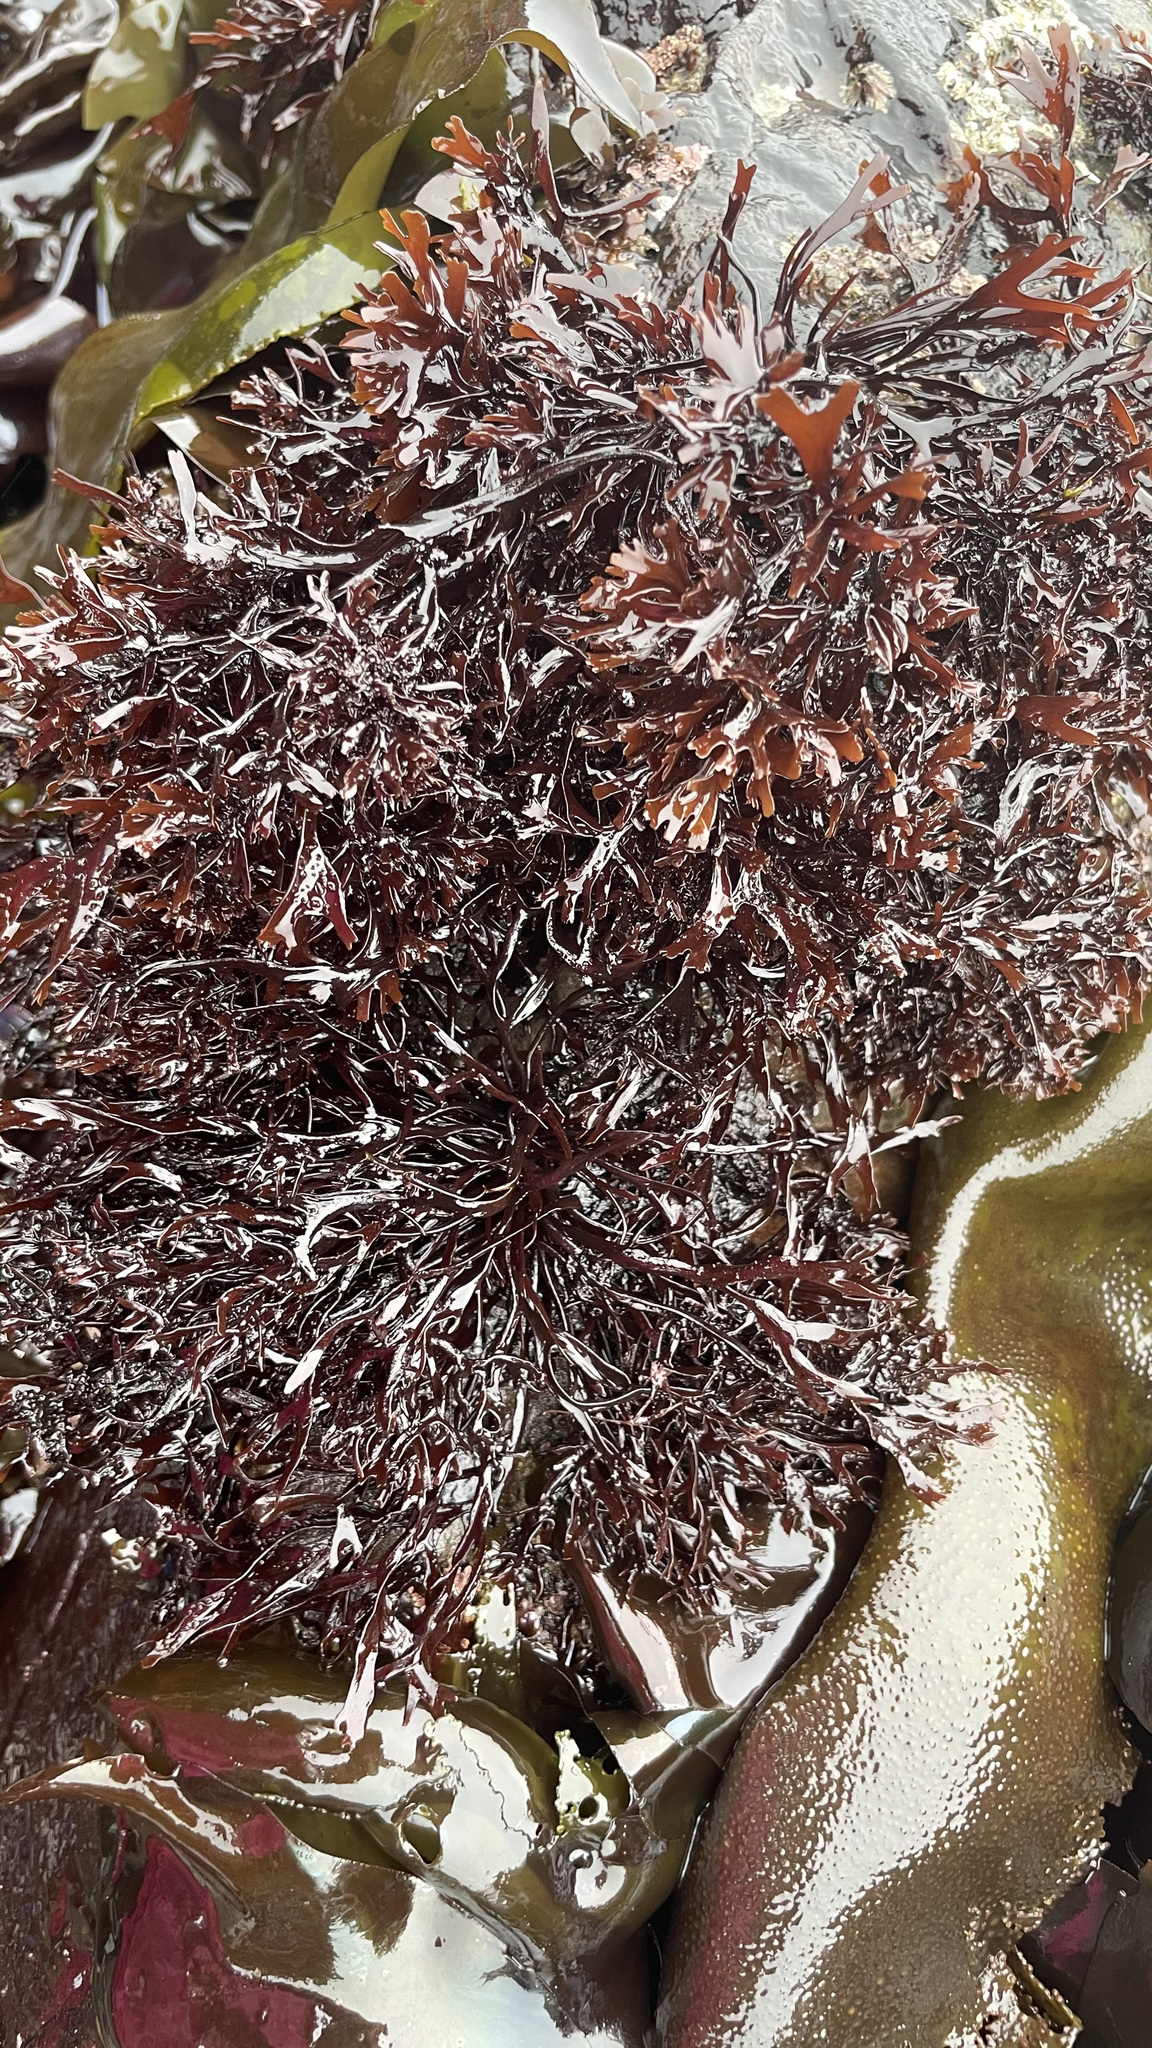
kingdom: Plantae
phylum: Rhodophyta
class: Florideophyceae
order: Gigartinales
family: Phyllophoraceae
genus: Mastocarpus
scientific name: Mastocarpus jardinii
